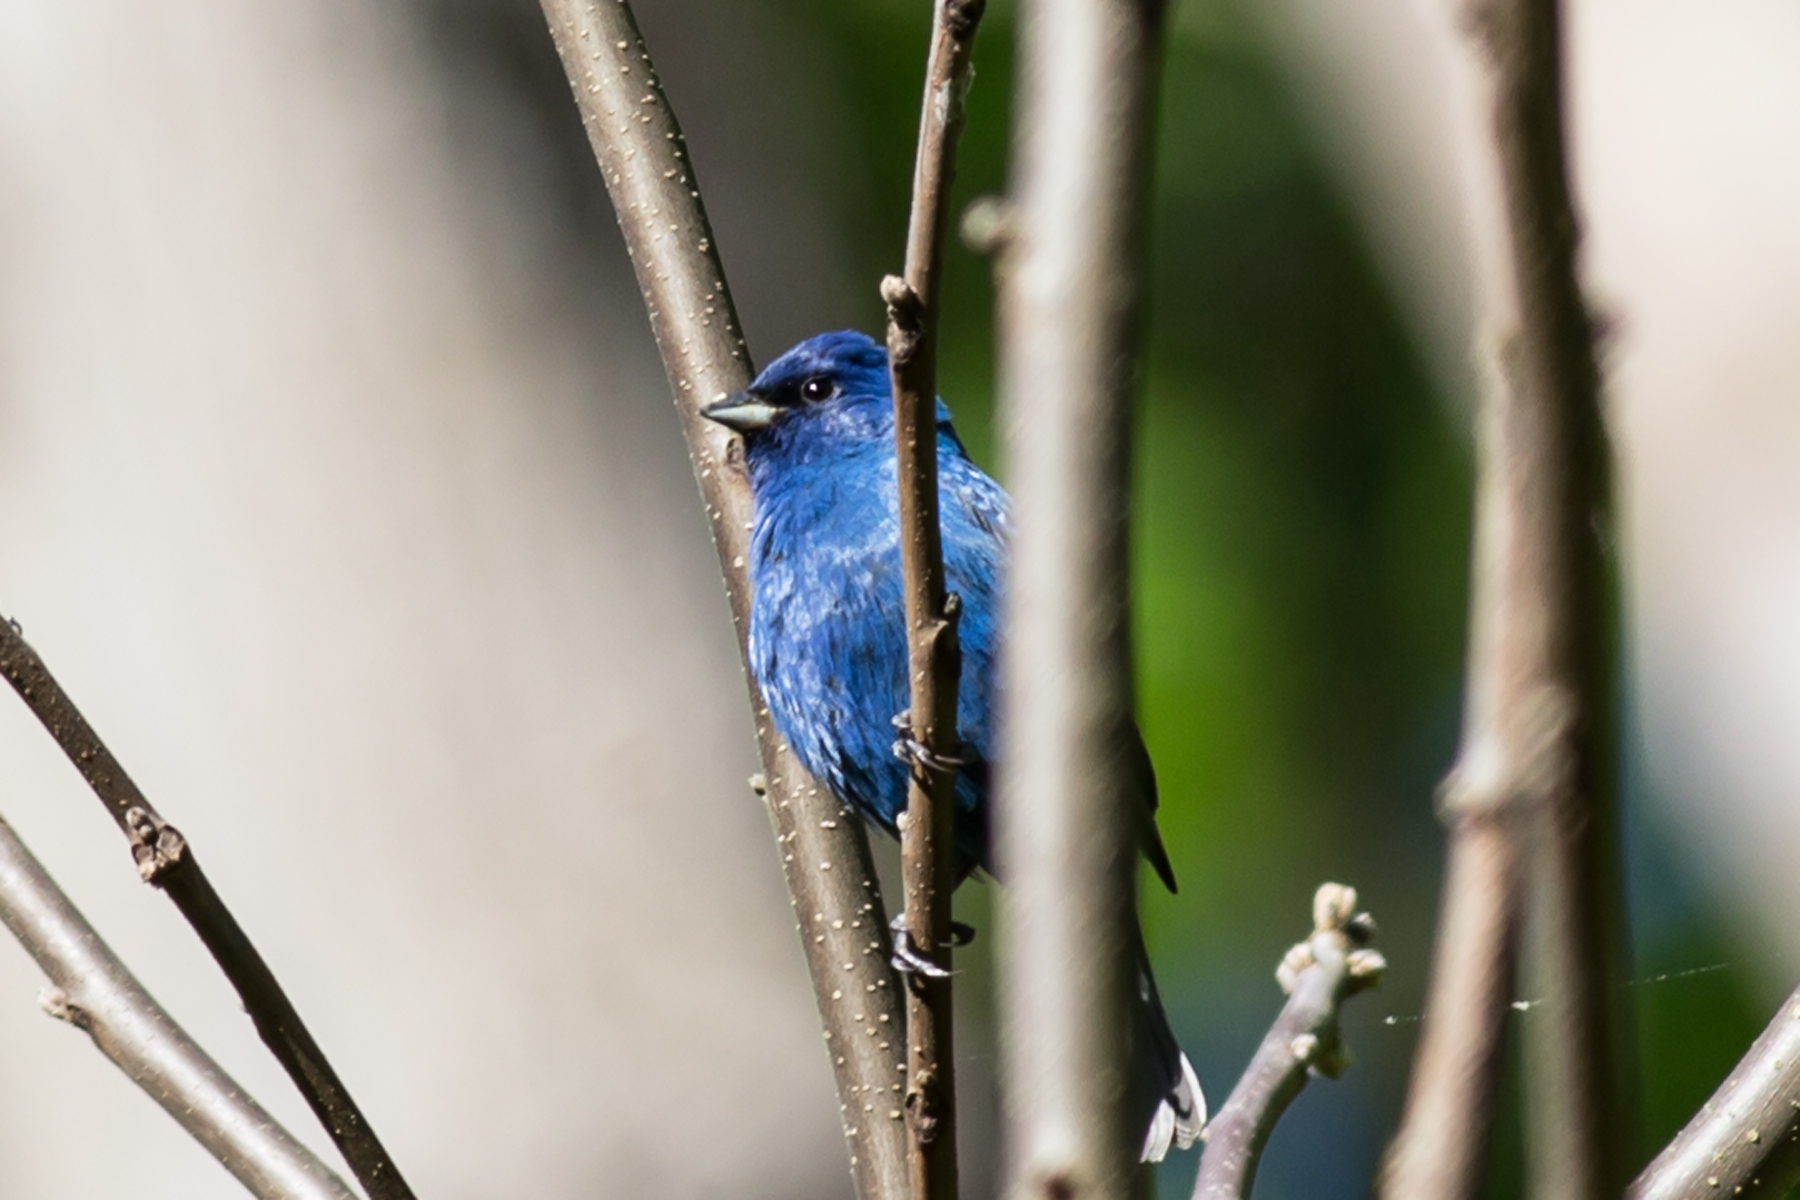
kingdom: Animalia
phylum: Chordata
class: Aves
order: Passeriformes
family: Cardinalidae
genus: Passerina
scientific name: Passerina cyanea
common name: Indigo bunting
